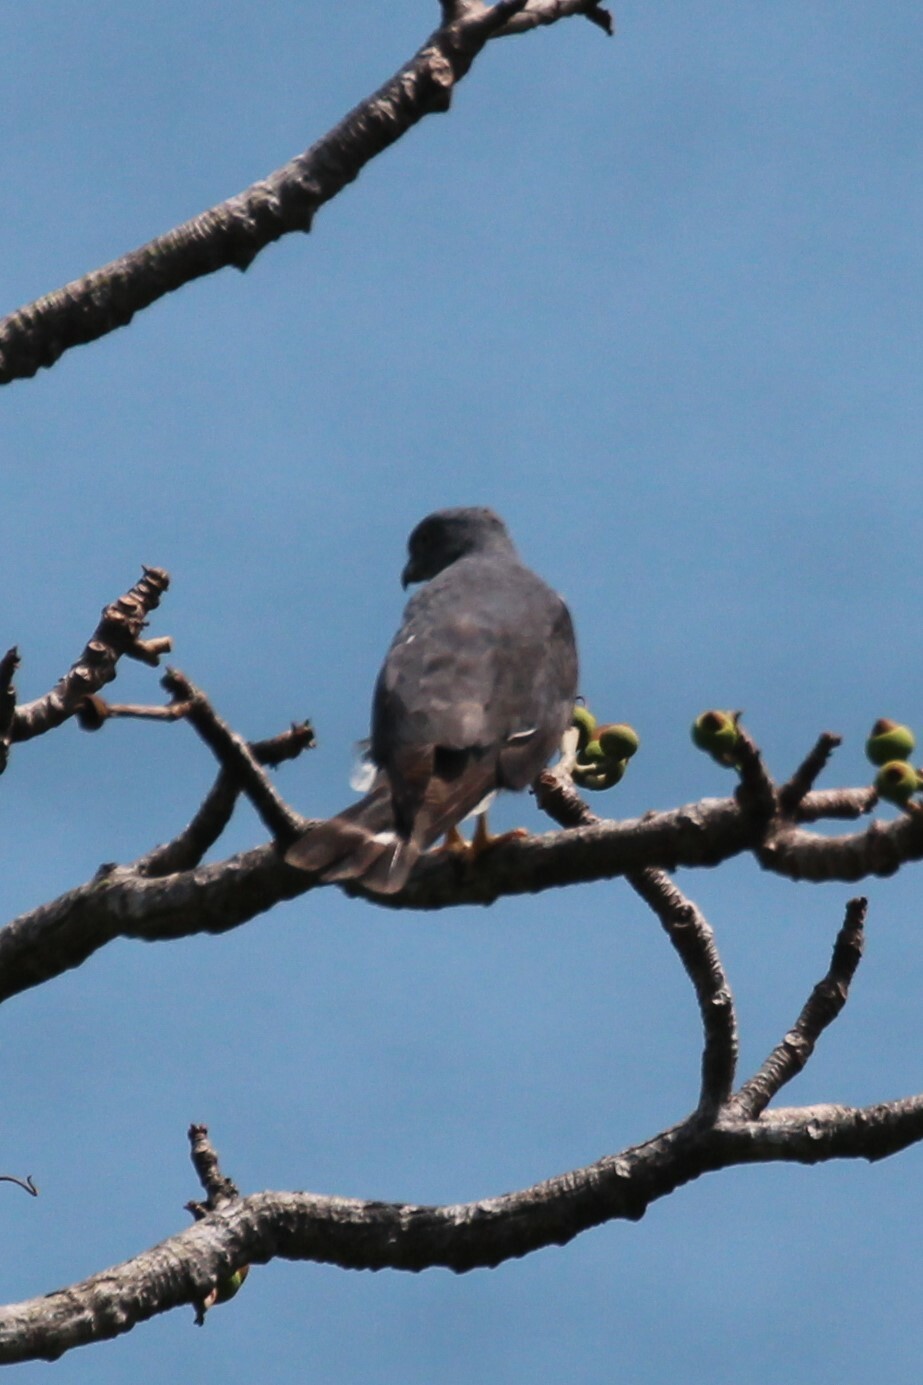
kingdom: Animalia
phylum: Chordata
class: Aves
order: Accipitriformes
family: Accipitridae
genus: Harpagus
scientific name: Harpagus bidentatus
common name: Double-toothed kite
